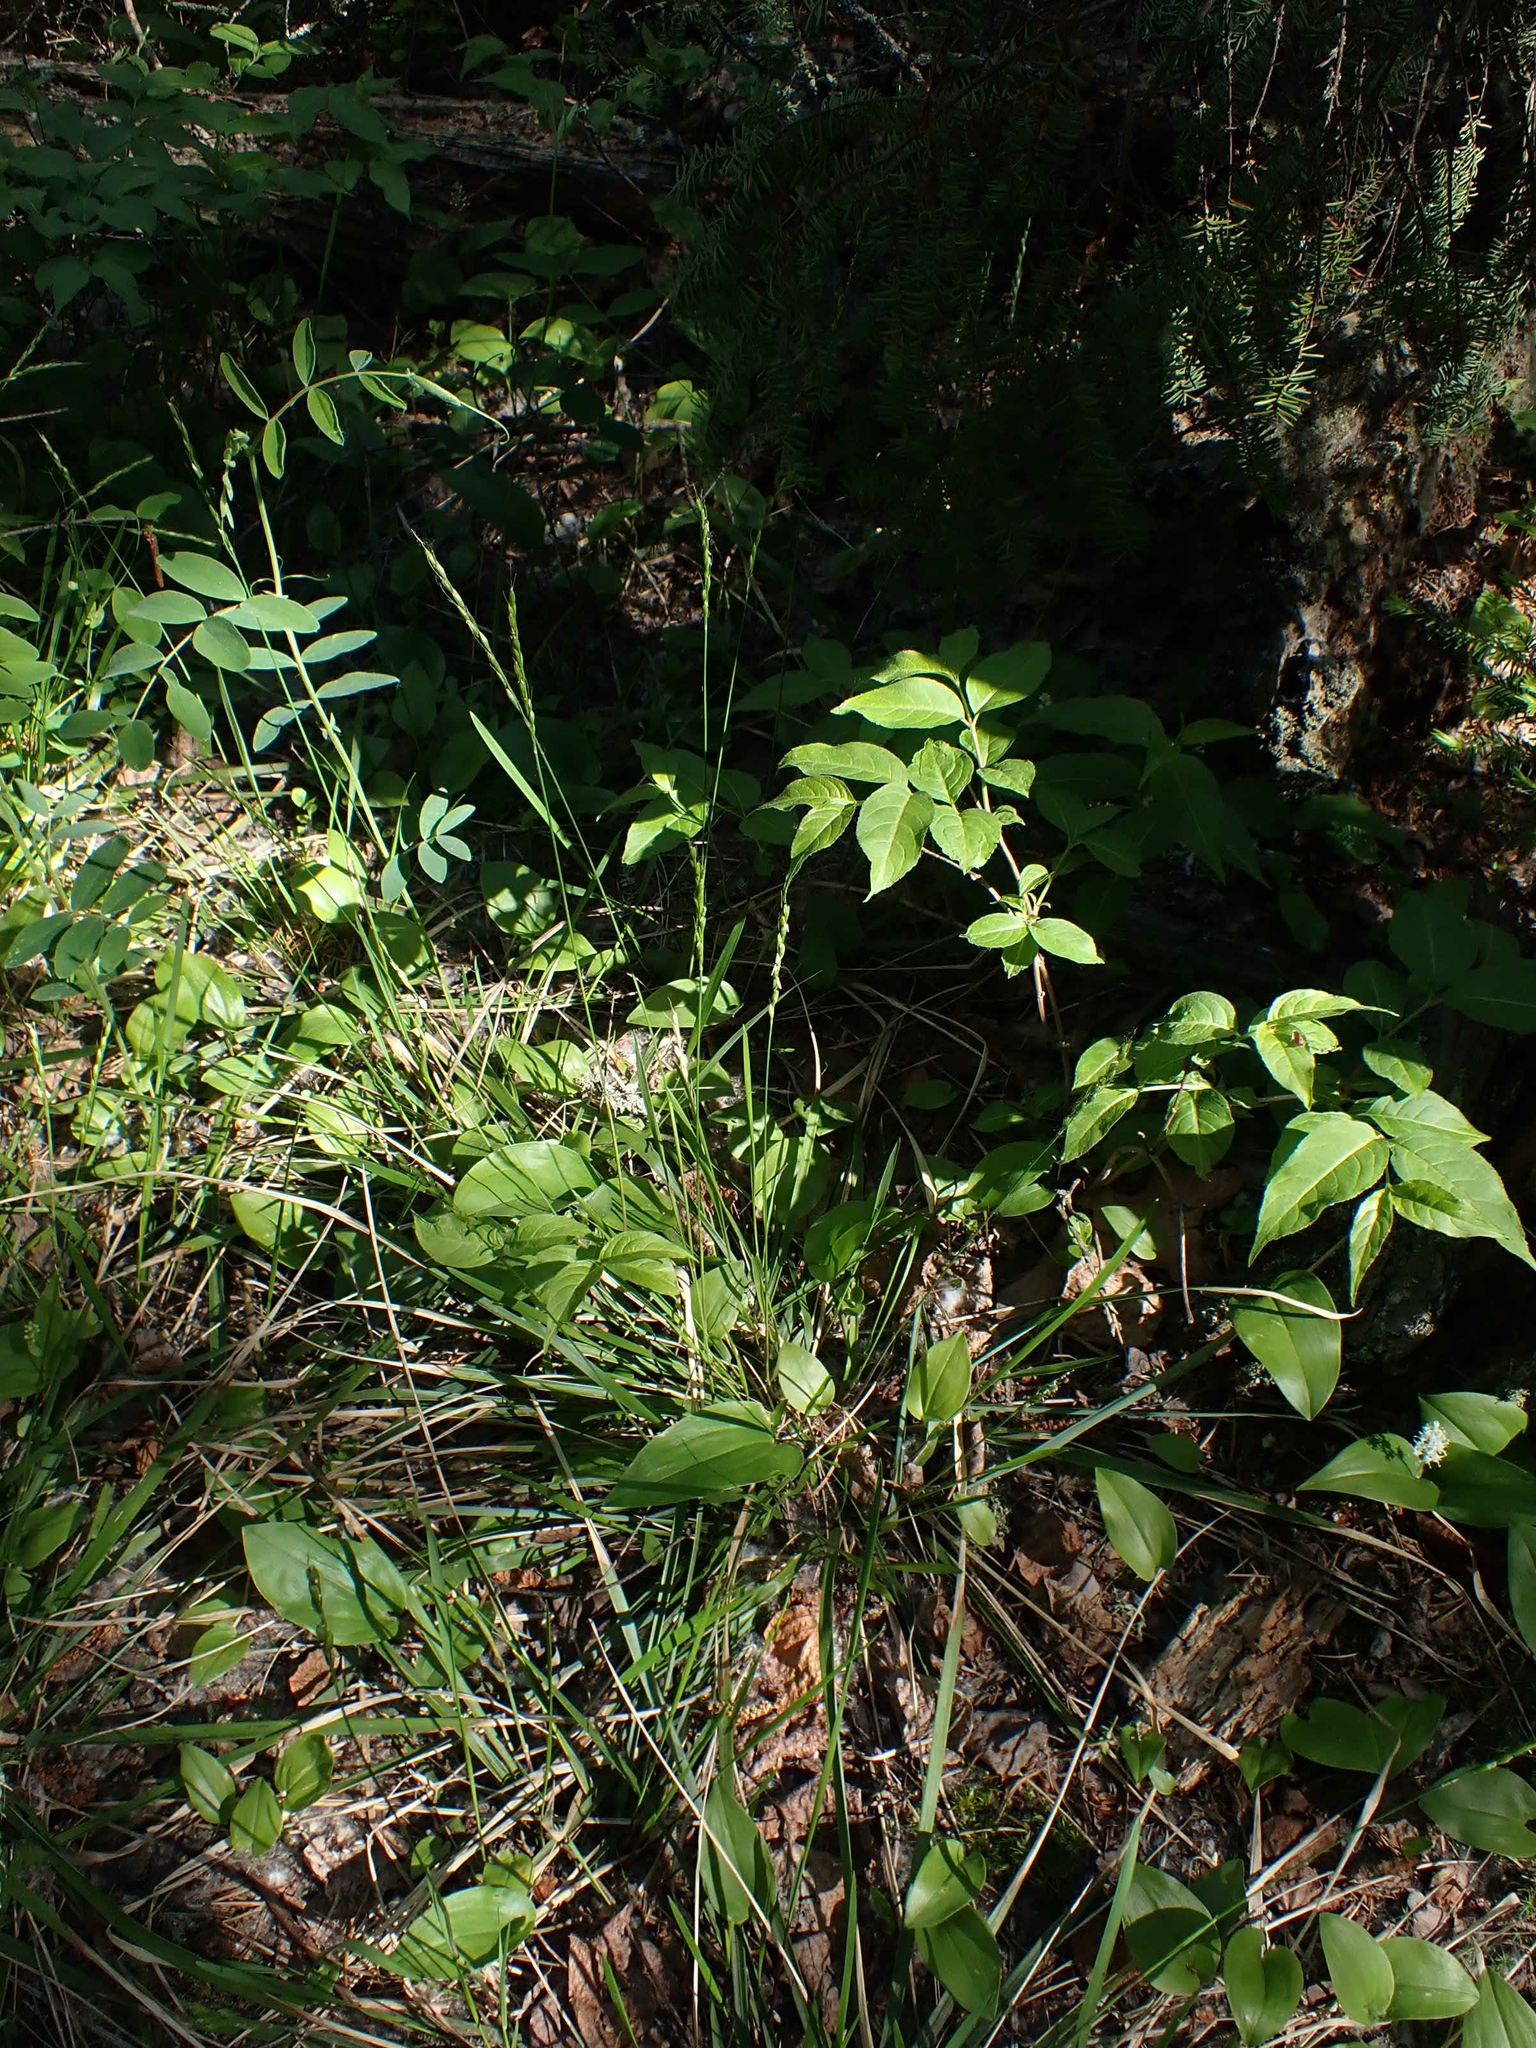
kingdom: Plantae
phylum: Tracheophyta
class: Liliopsida
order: Poales
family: Poaceae
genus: Oryzopsis
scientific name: Oryzopsis asperifolia
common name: Rough-leaved mountain rice
